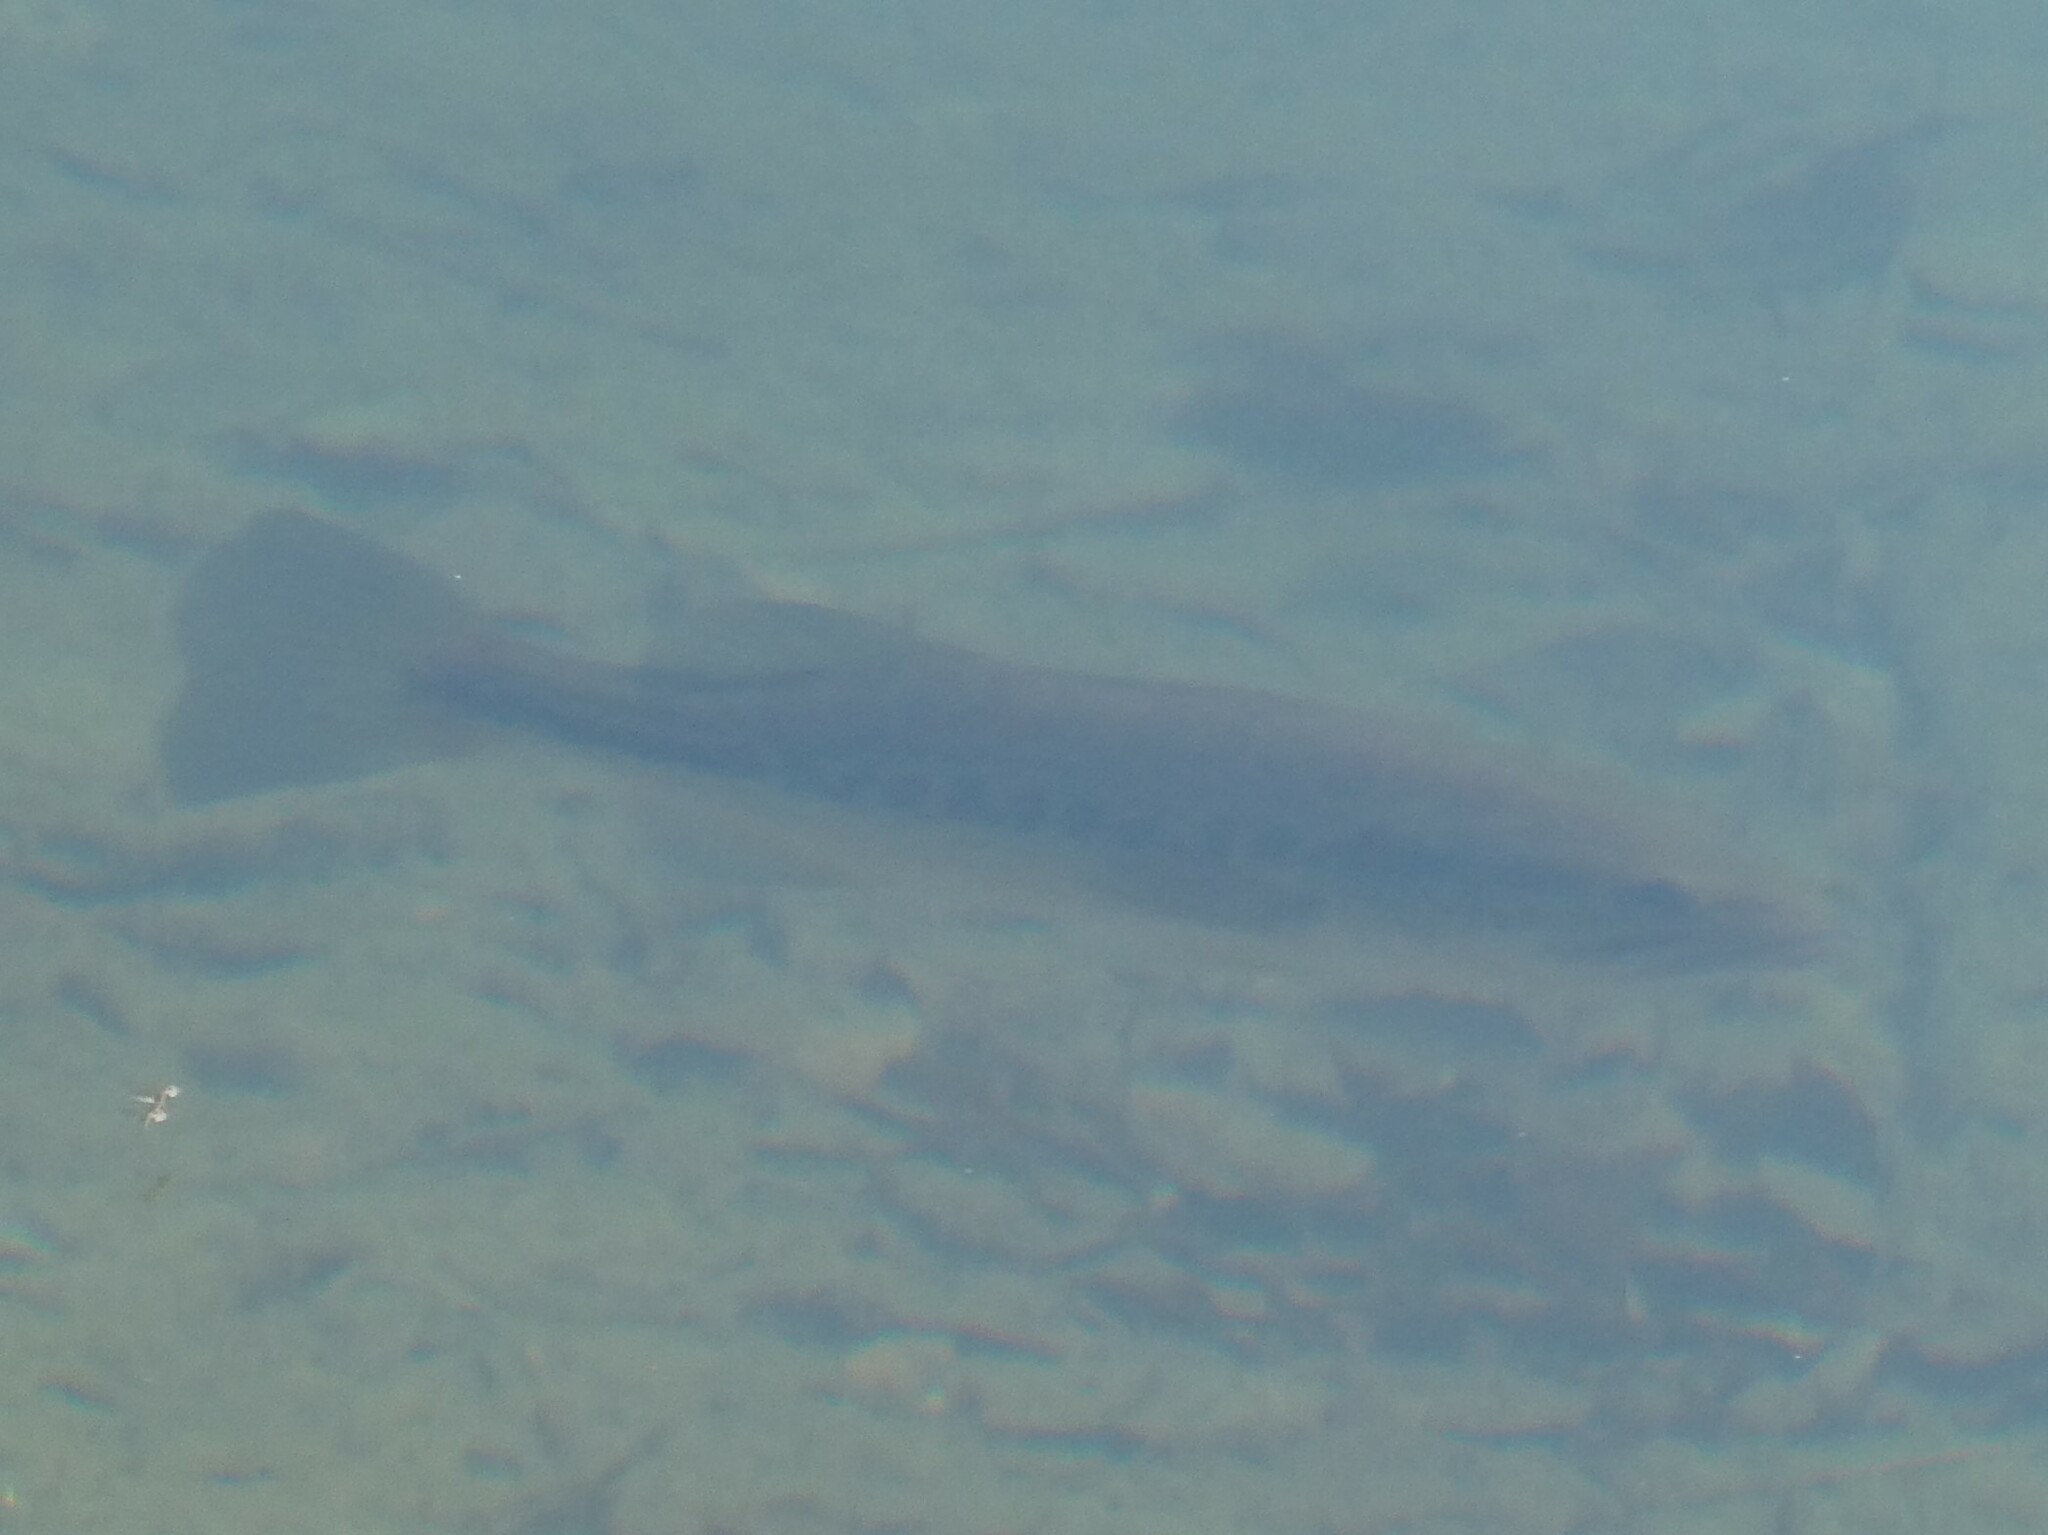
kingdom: Animalia
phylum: Chordata
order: Perciformes
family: Centrarchidae
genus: Micropterus
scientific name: Micropterus
